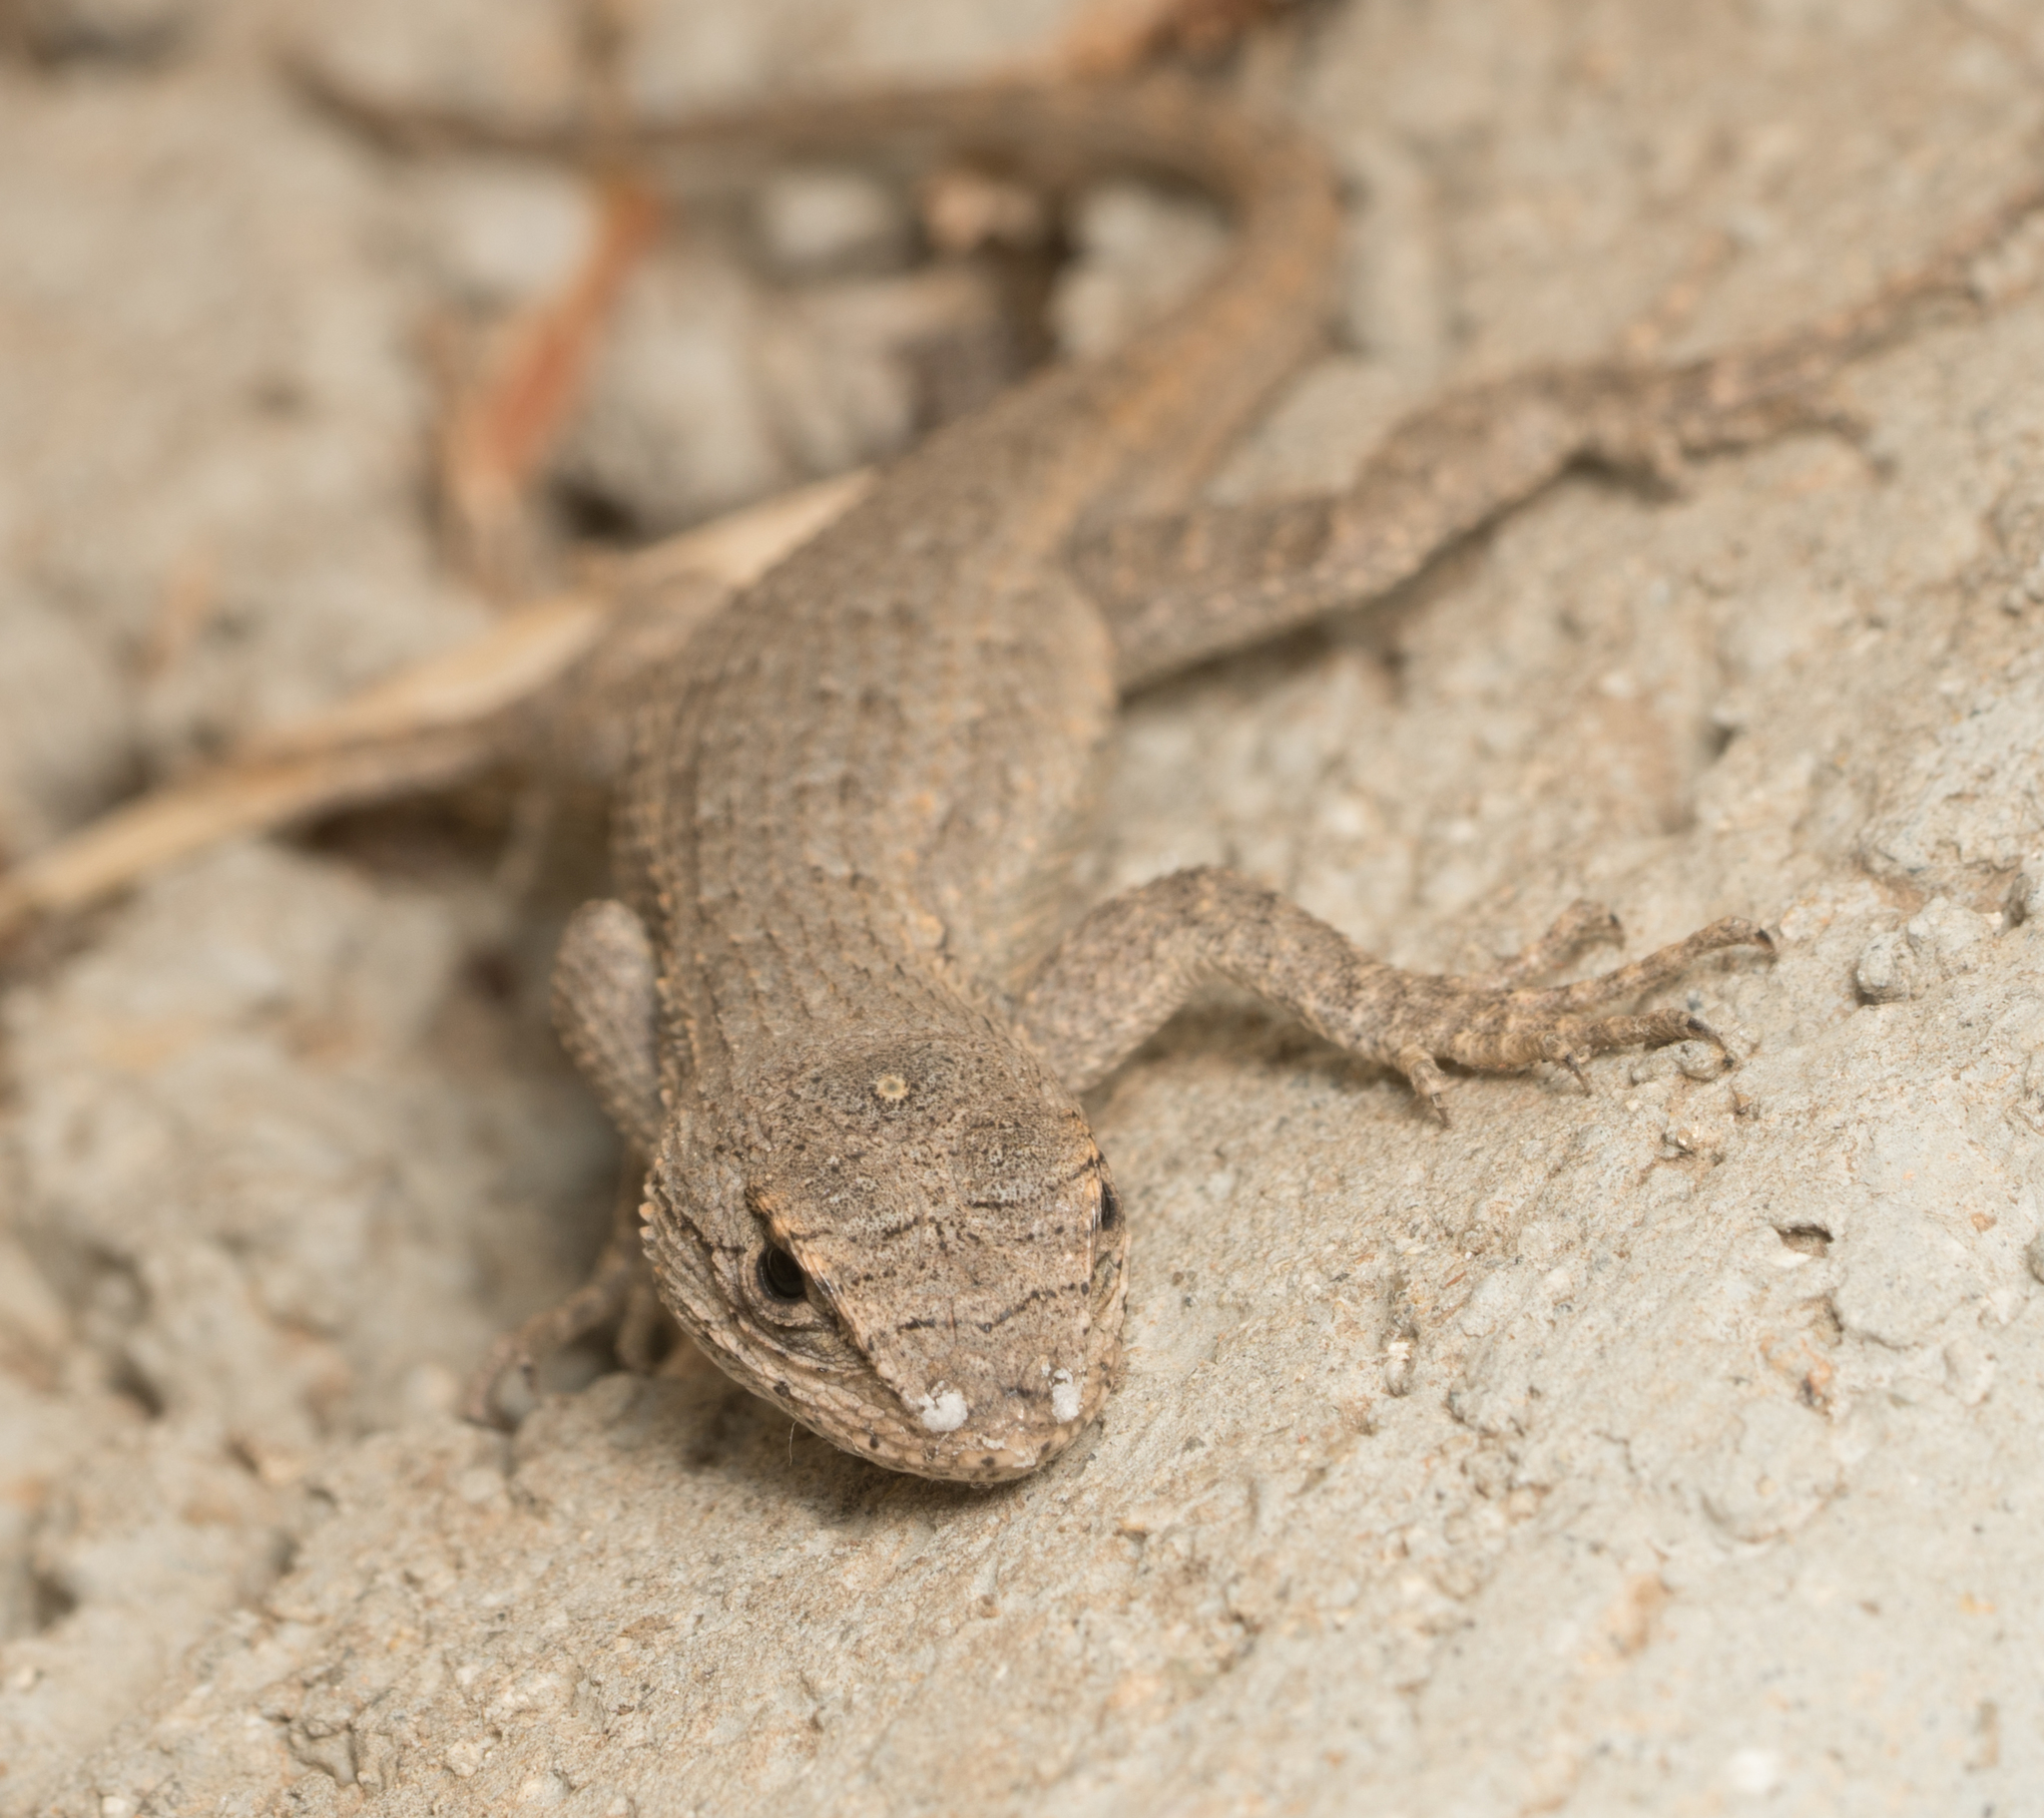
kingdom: Animalia
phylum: Chordata
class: Squamata
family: Phrynosomatidae
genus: Sceloporus
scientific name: Sceloporus occidentalis
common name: Western fence lizard
